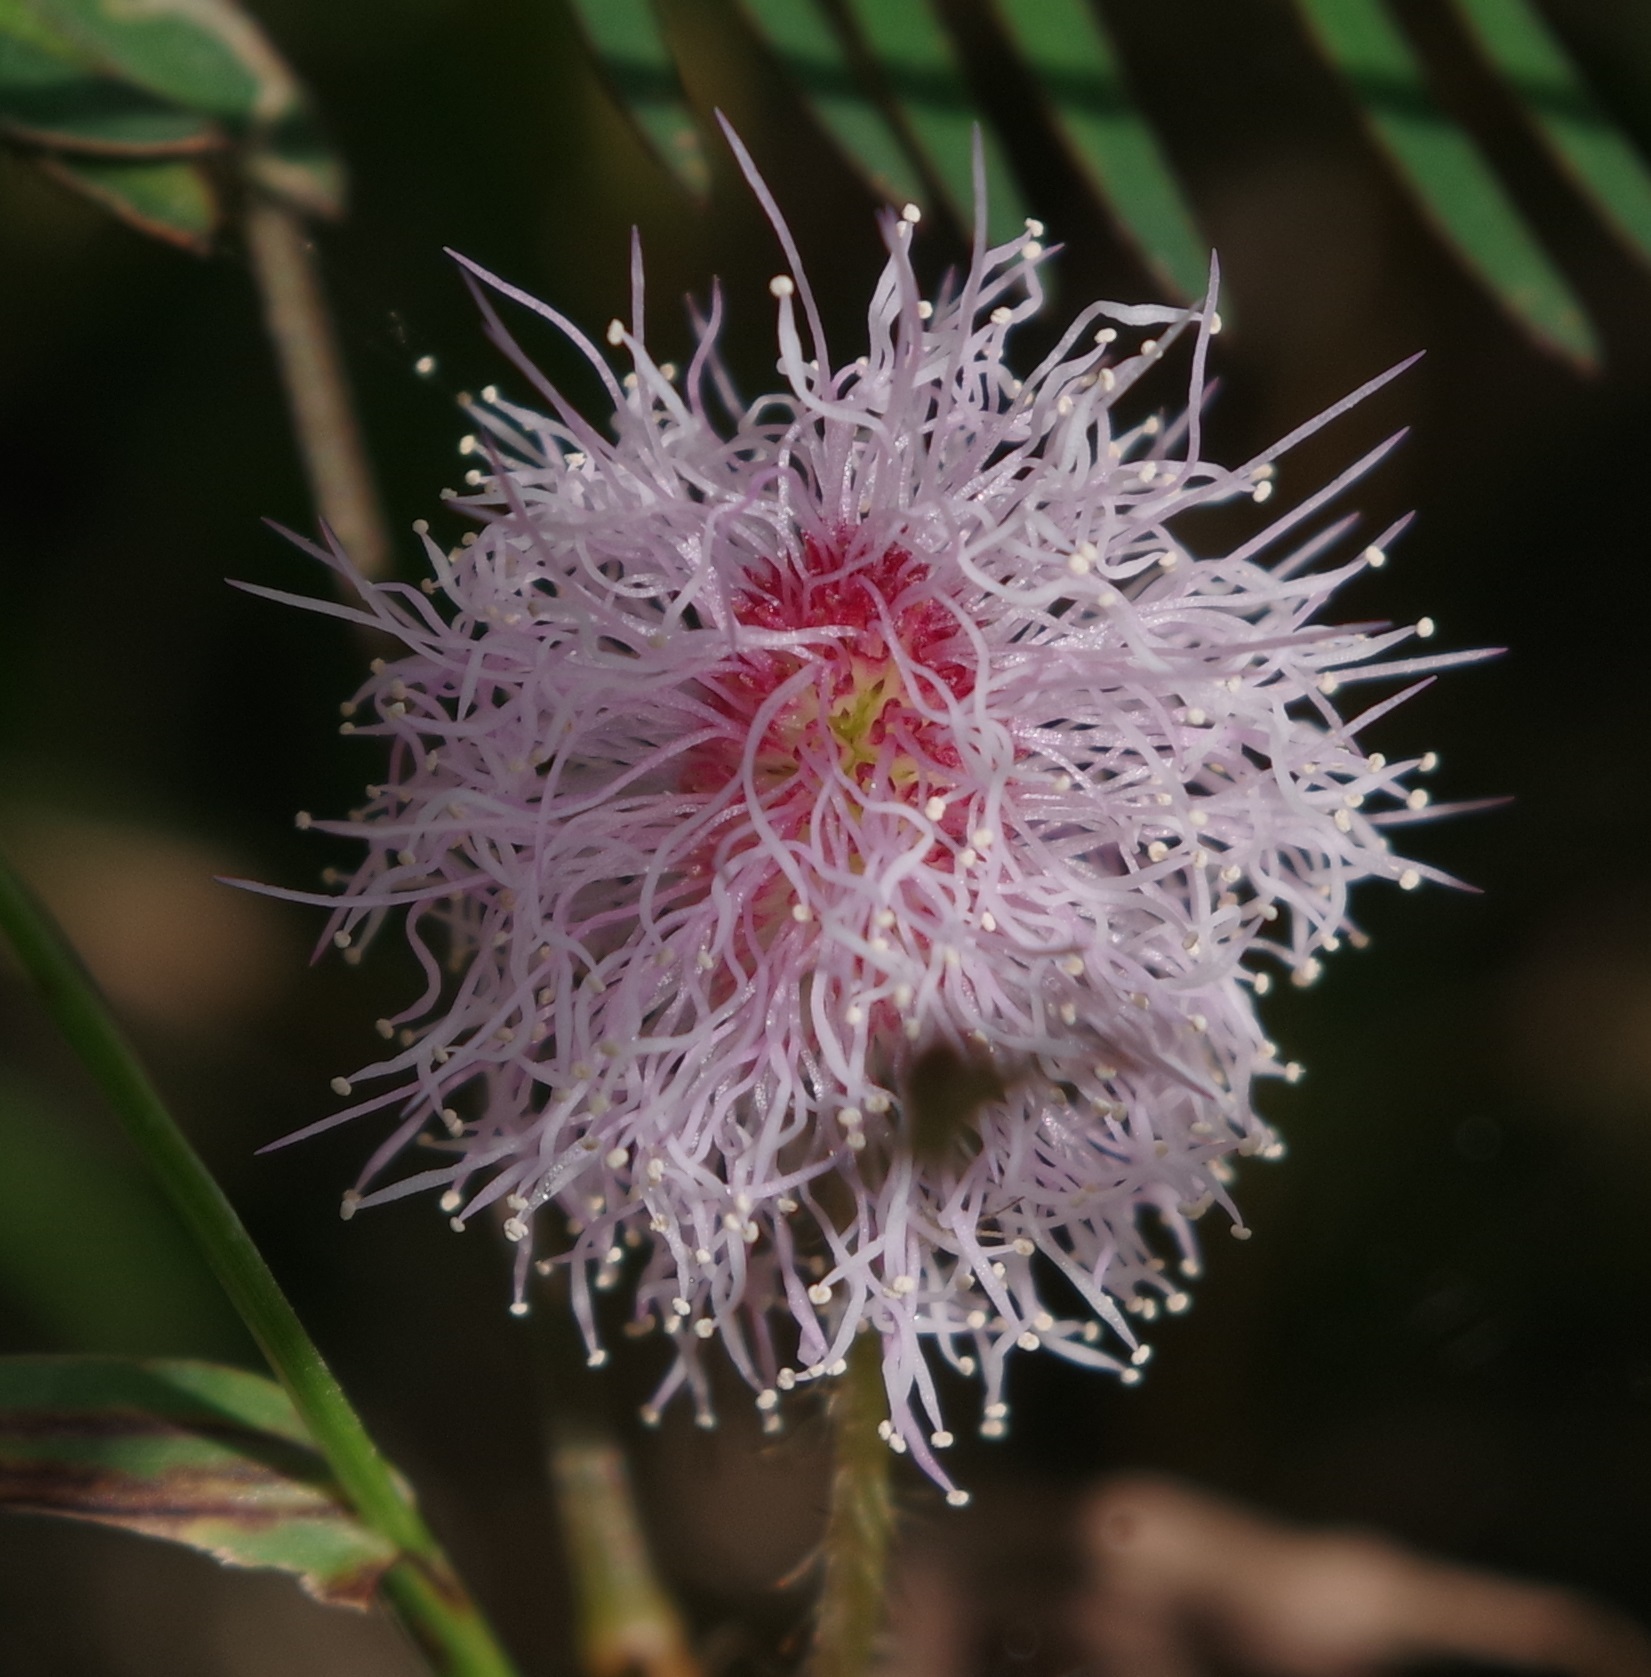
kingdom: Plantae
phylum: Tracheophyta
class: Magnoliopsida
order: Fabales
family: Fabaceae
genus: Mimosa
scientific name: Mimosa pudica
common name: Sensitive plant
